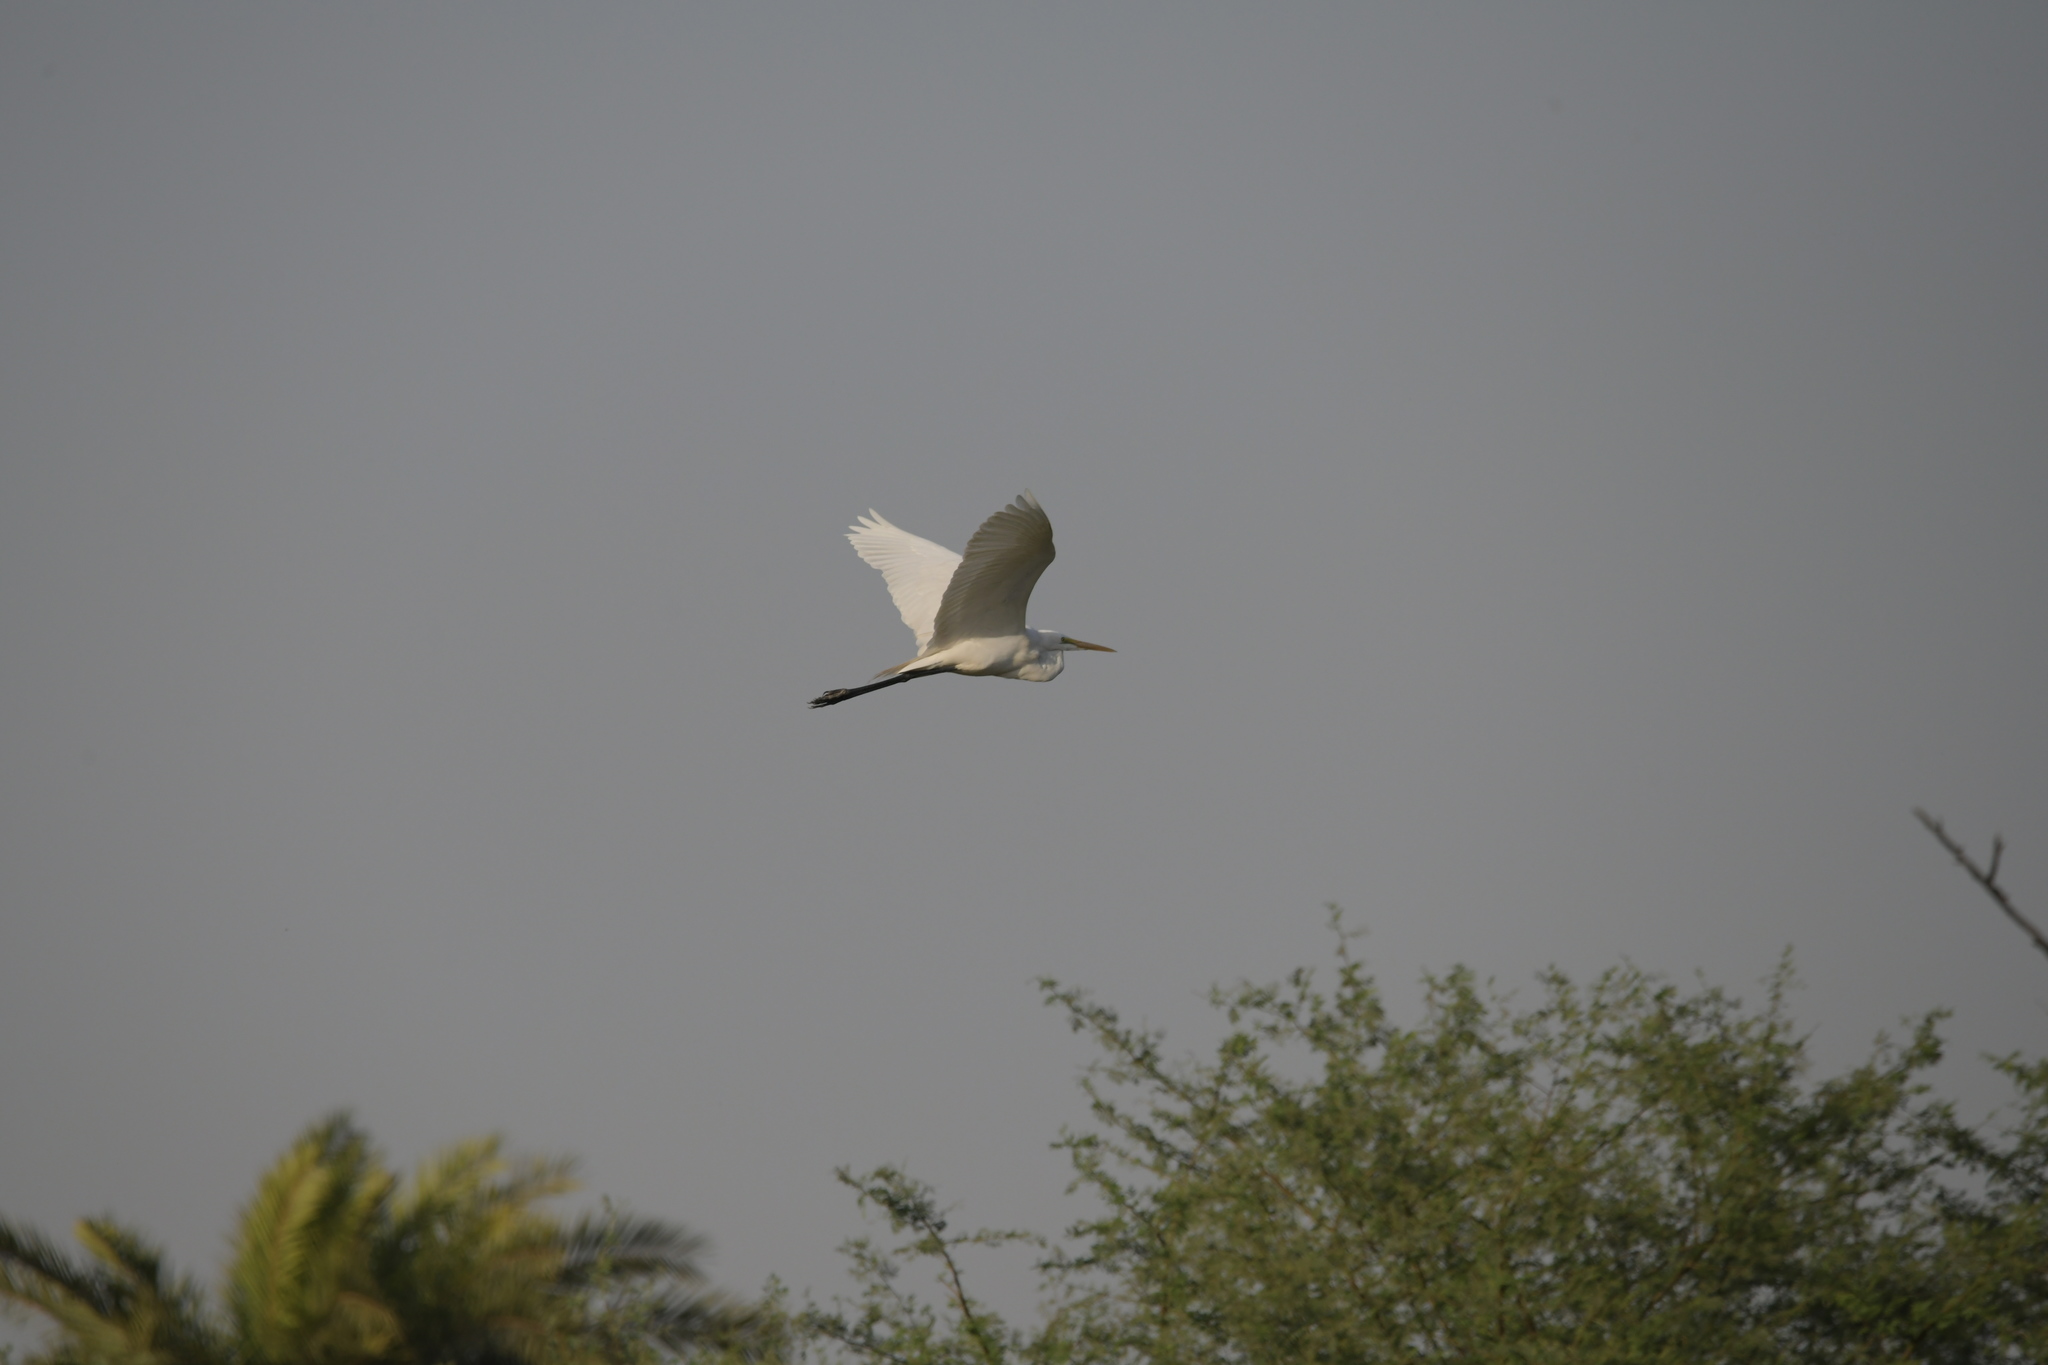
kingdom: Animalia
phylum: Chordata
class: Aves
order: Pelecaniformes
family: Ardeidae
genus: Ardea
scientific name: Ardea alba
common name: Great egret
